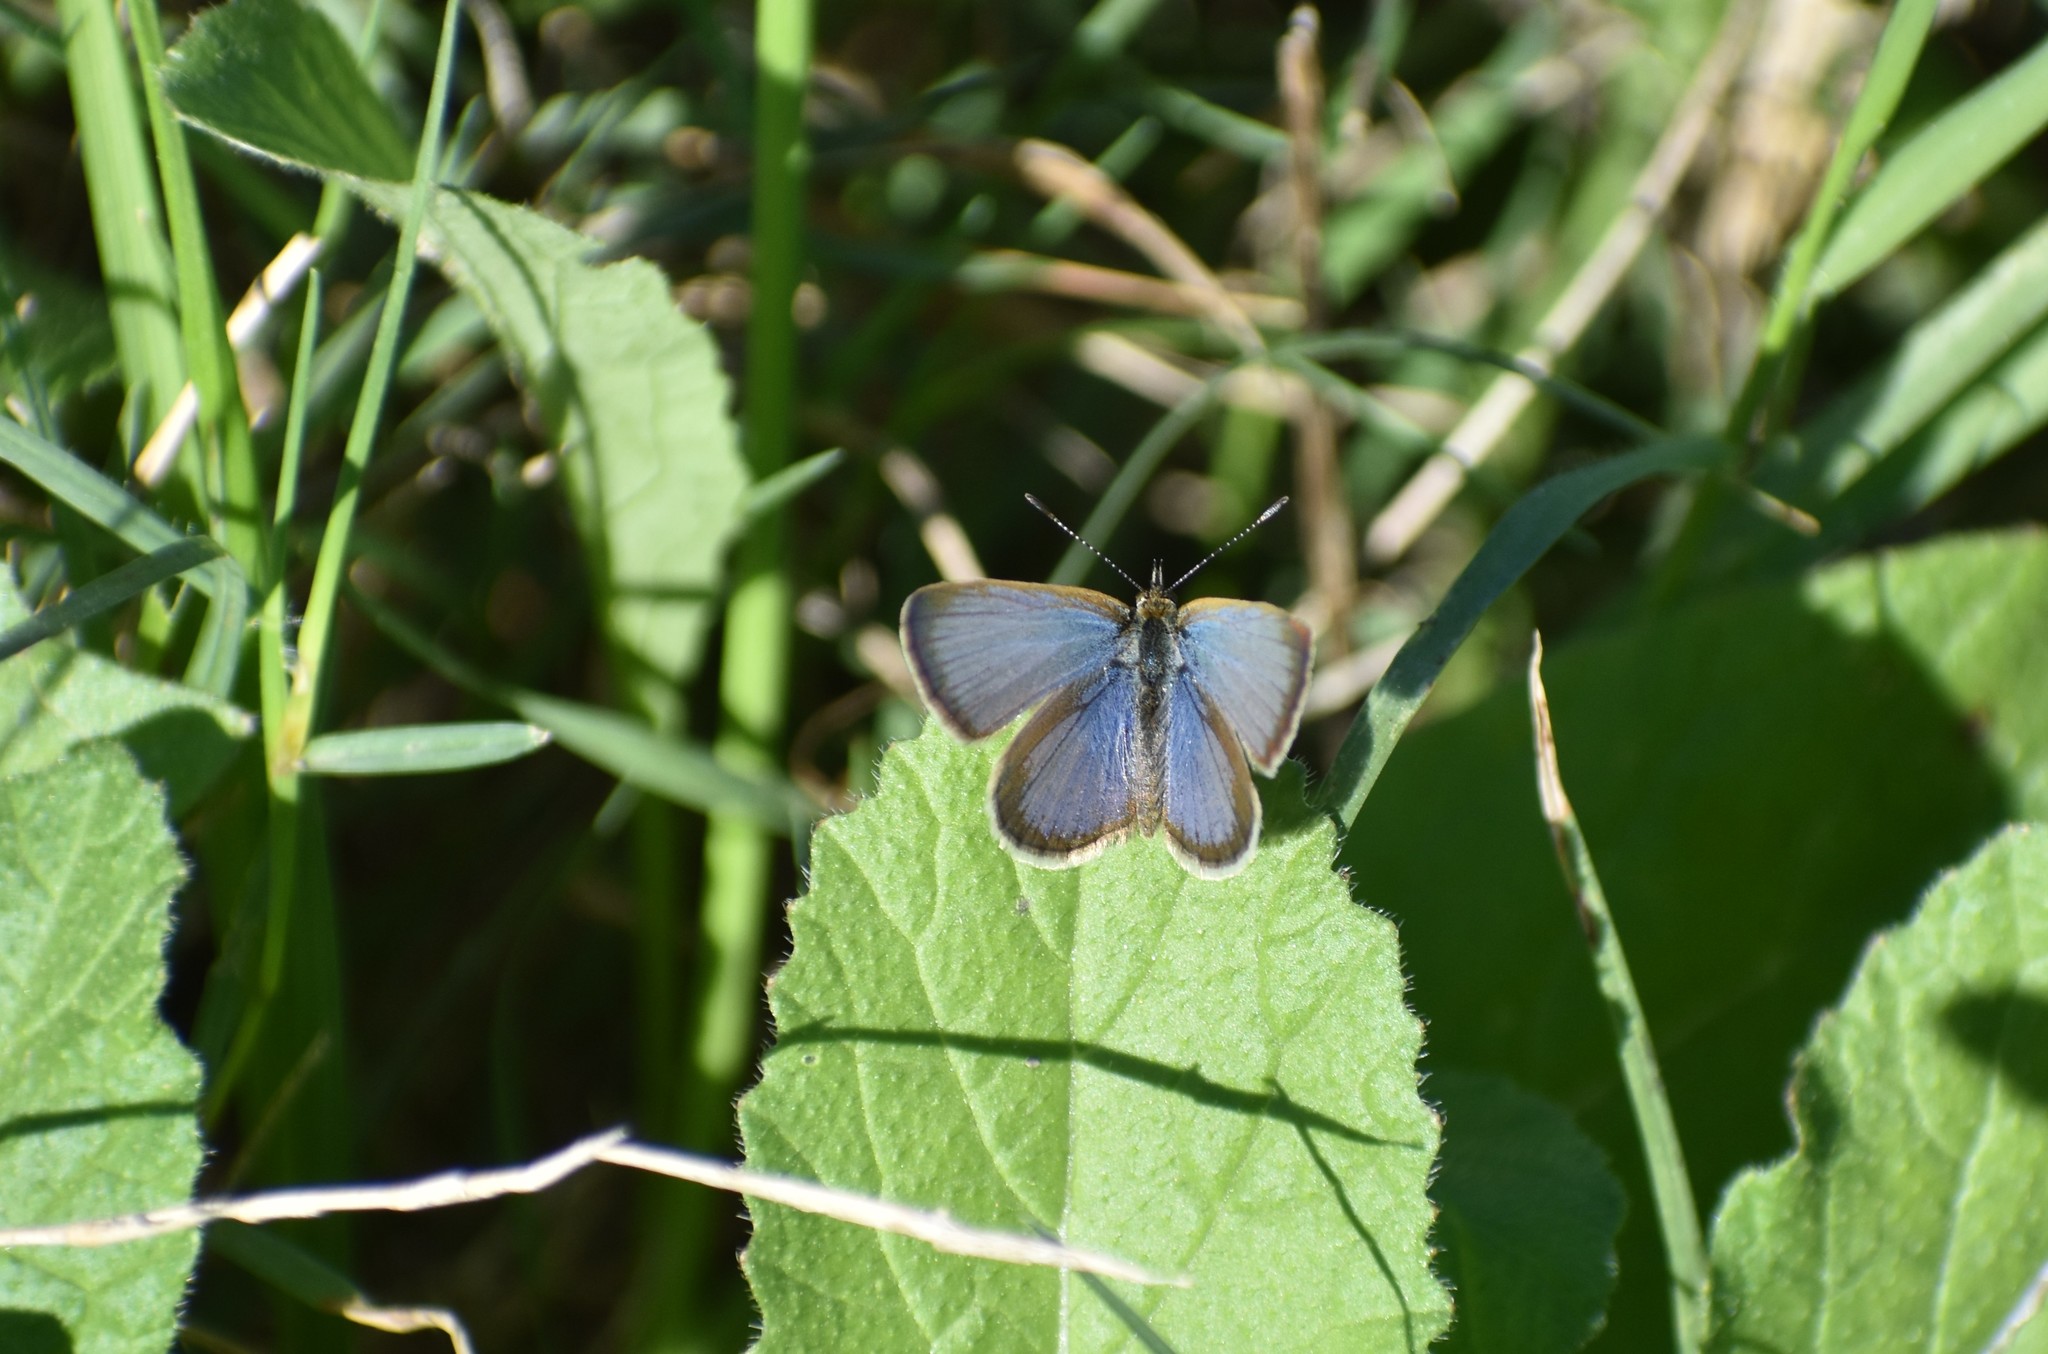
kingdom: Animalia
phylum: Arthropoda
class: Insecta
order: Lepidoptera
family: Lycaenidae
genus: Zizeeria
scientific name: Zizeeria knysna
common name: African grass blue
